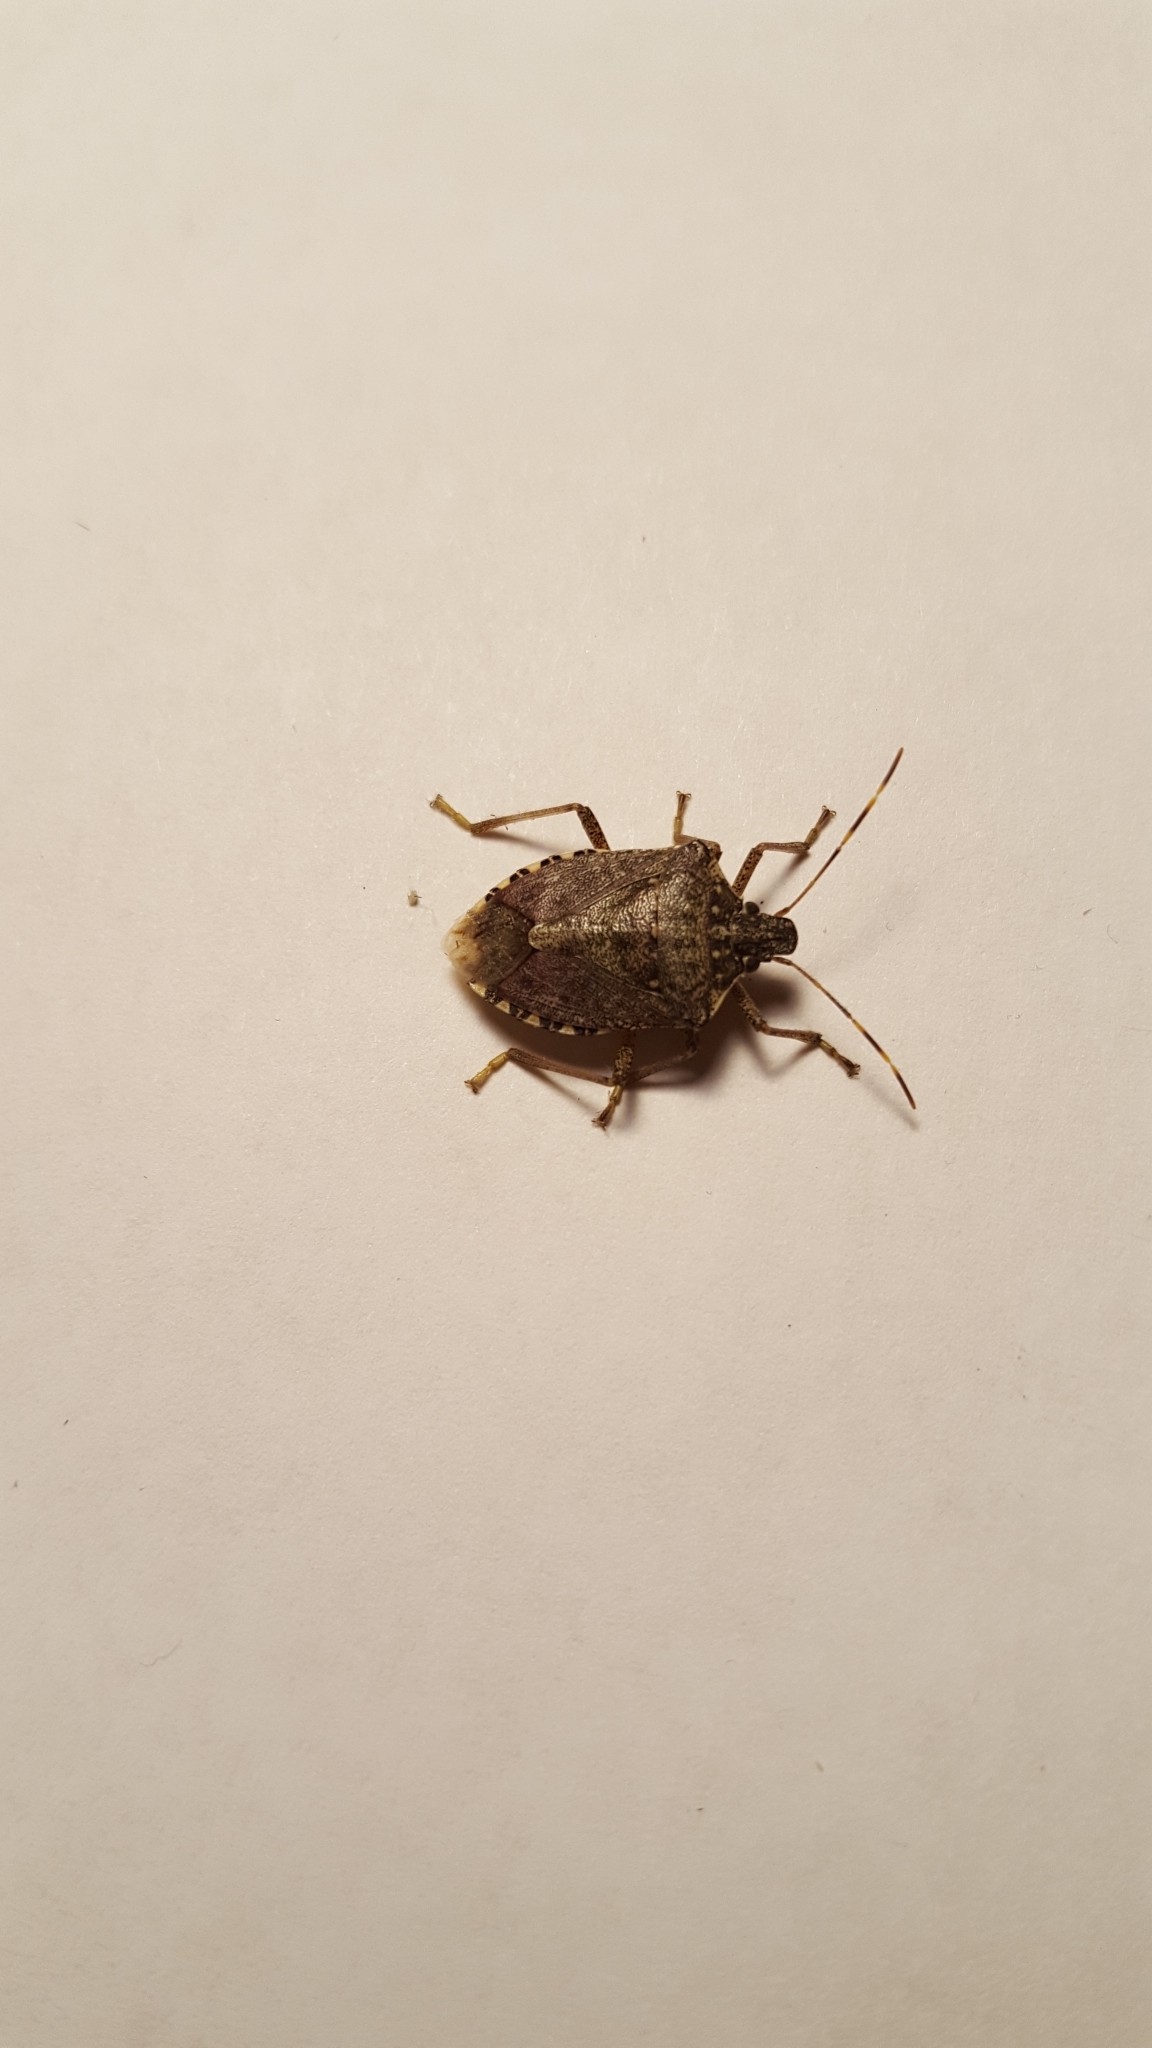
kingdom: Animalia
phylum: Arthropoda
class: Insecta
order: Hemiptera
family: Pentatomidae
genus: Halyomorpha
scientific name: Halyomorpha halys
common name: Brown marmorated stink bug
